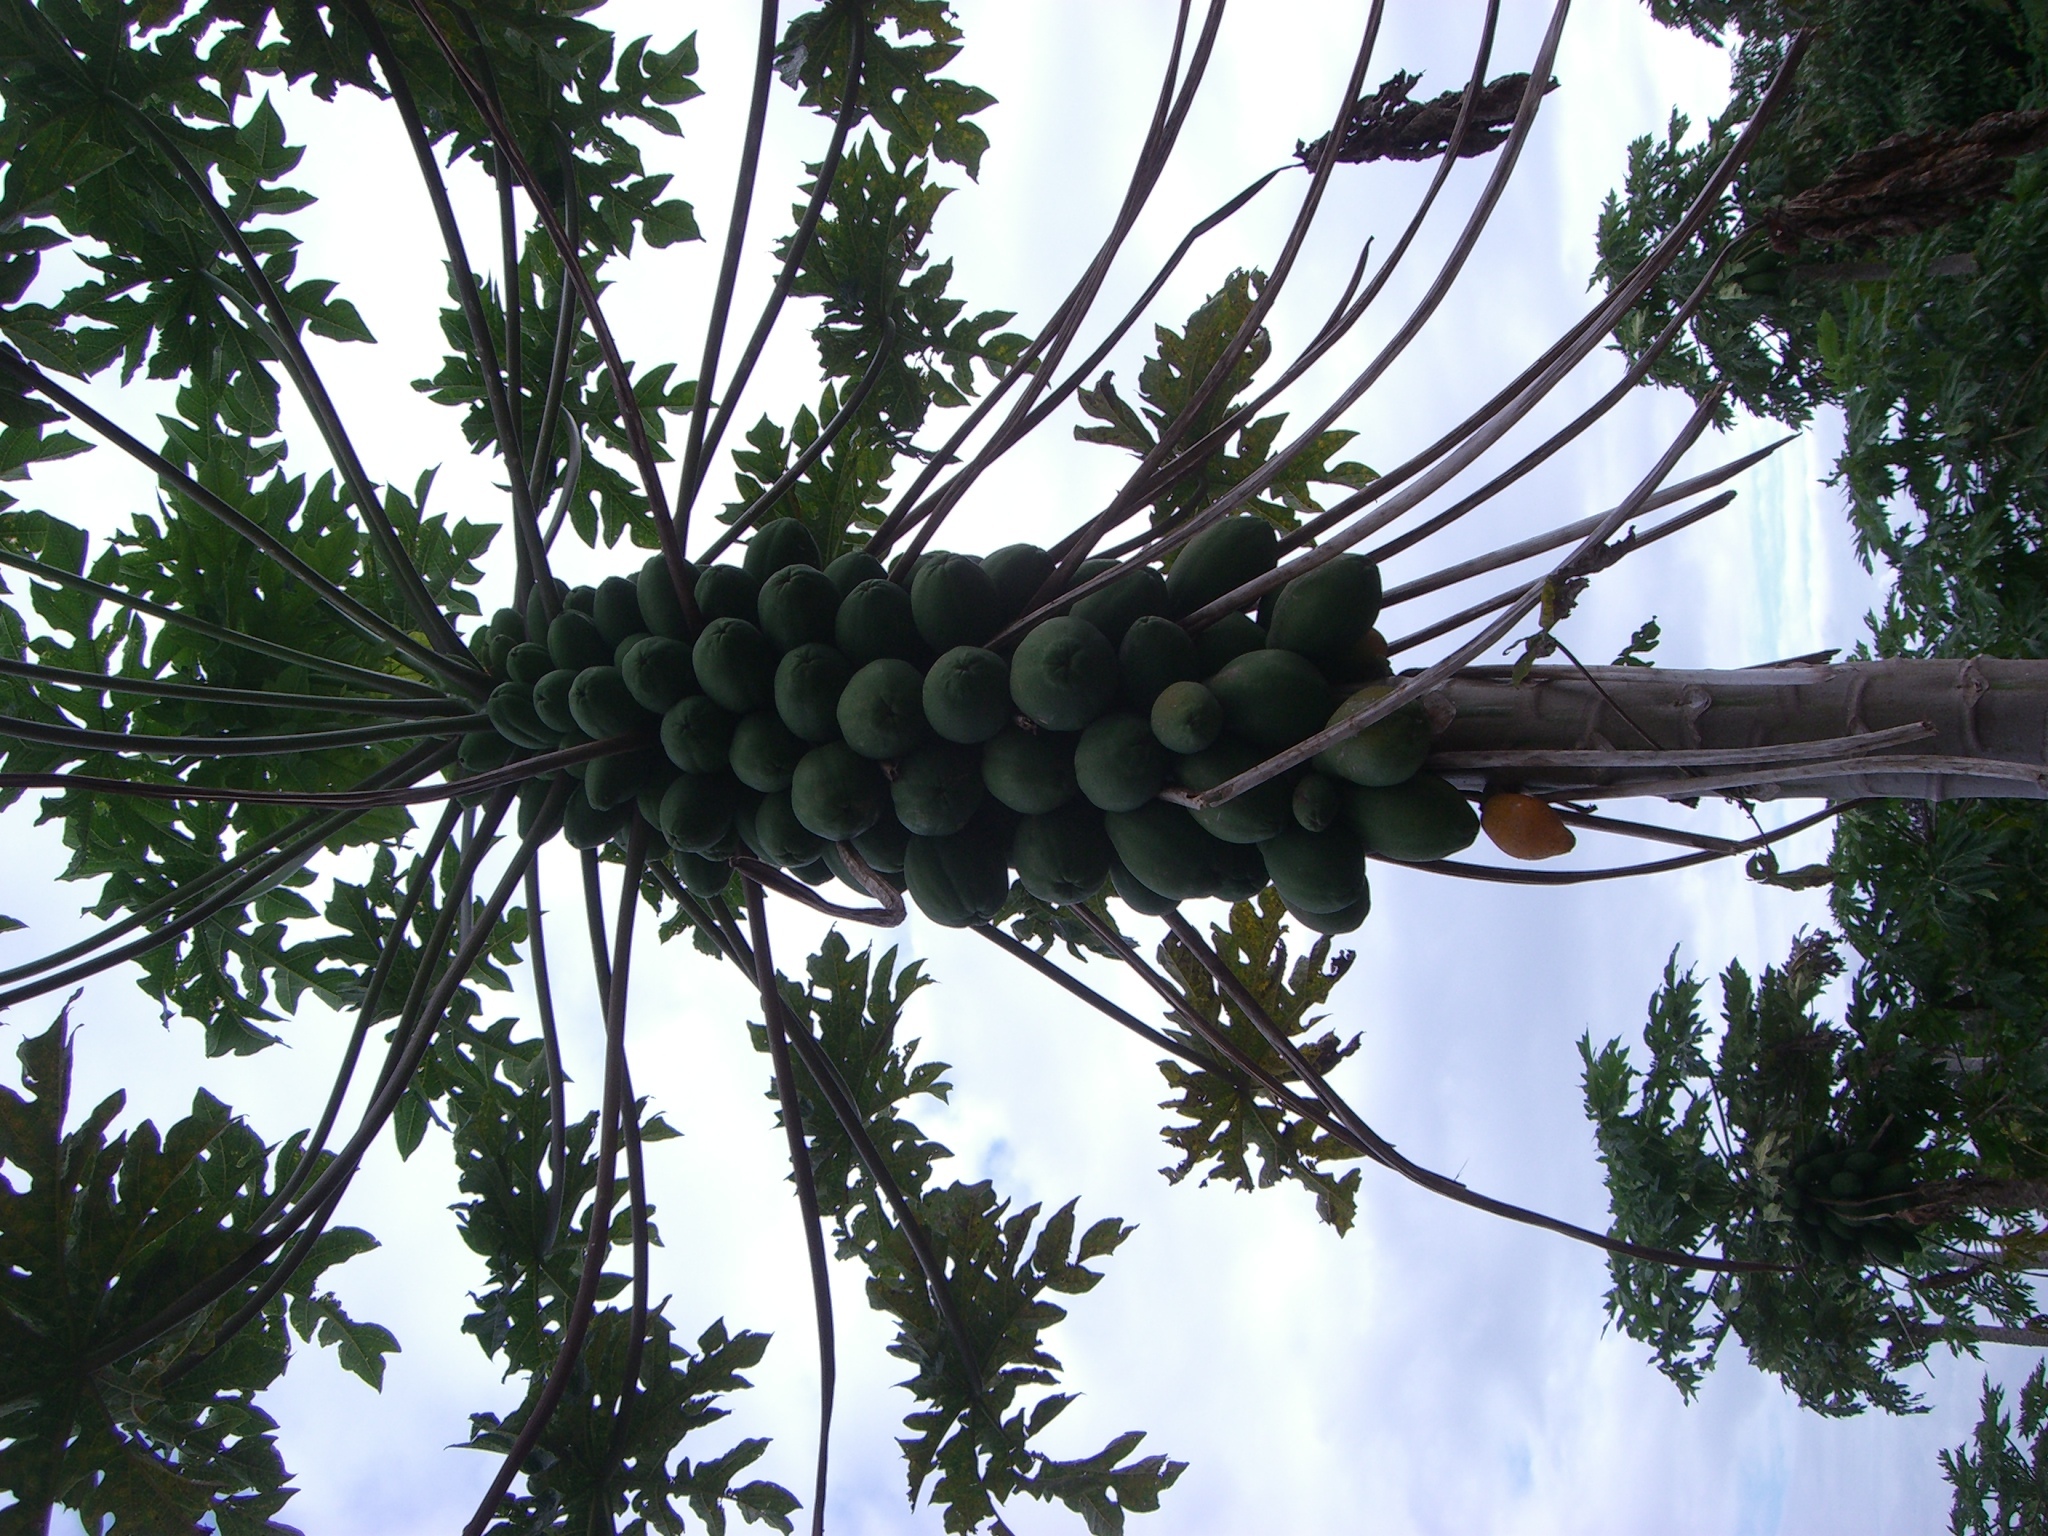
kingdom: Plantae
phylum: Tracheophyta
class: Magnoliopsida
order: Brassicales
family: Caricaceae
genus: Carica
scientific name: Carica papaya
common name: Papaya
